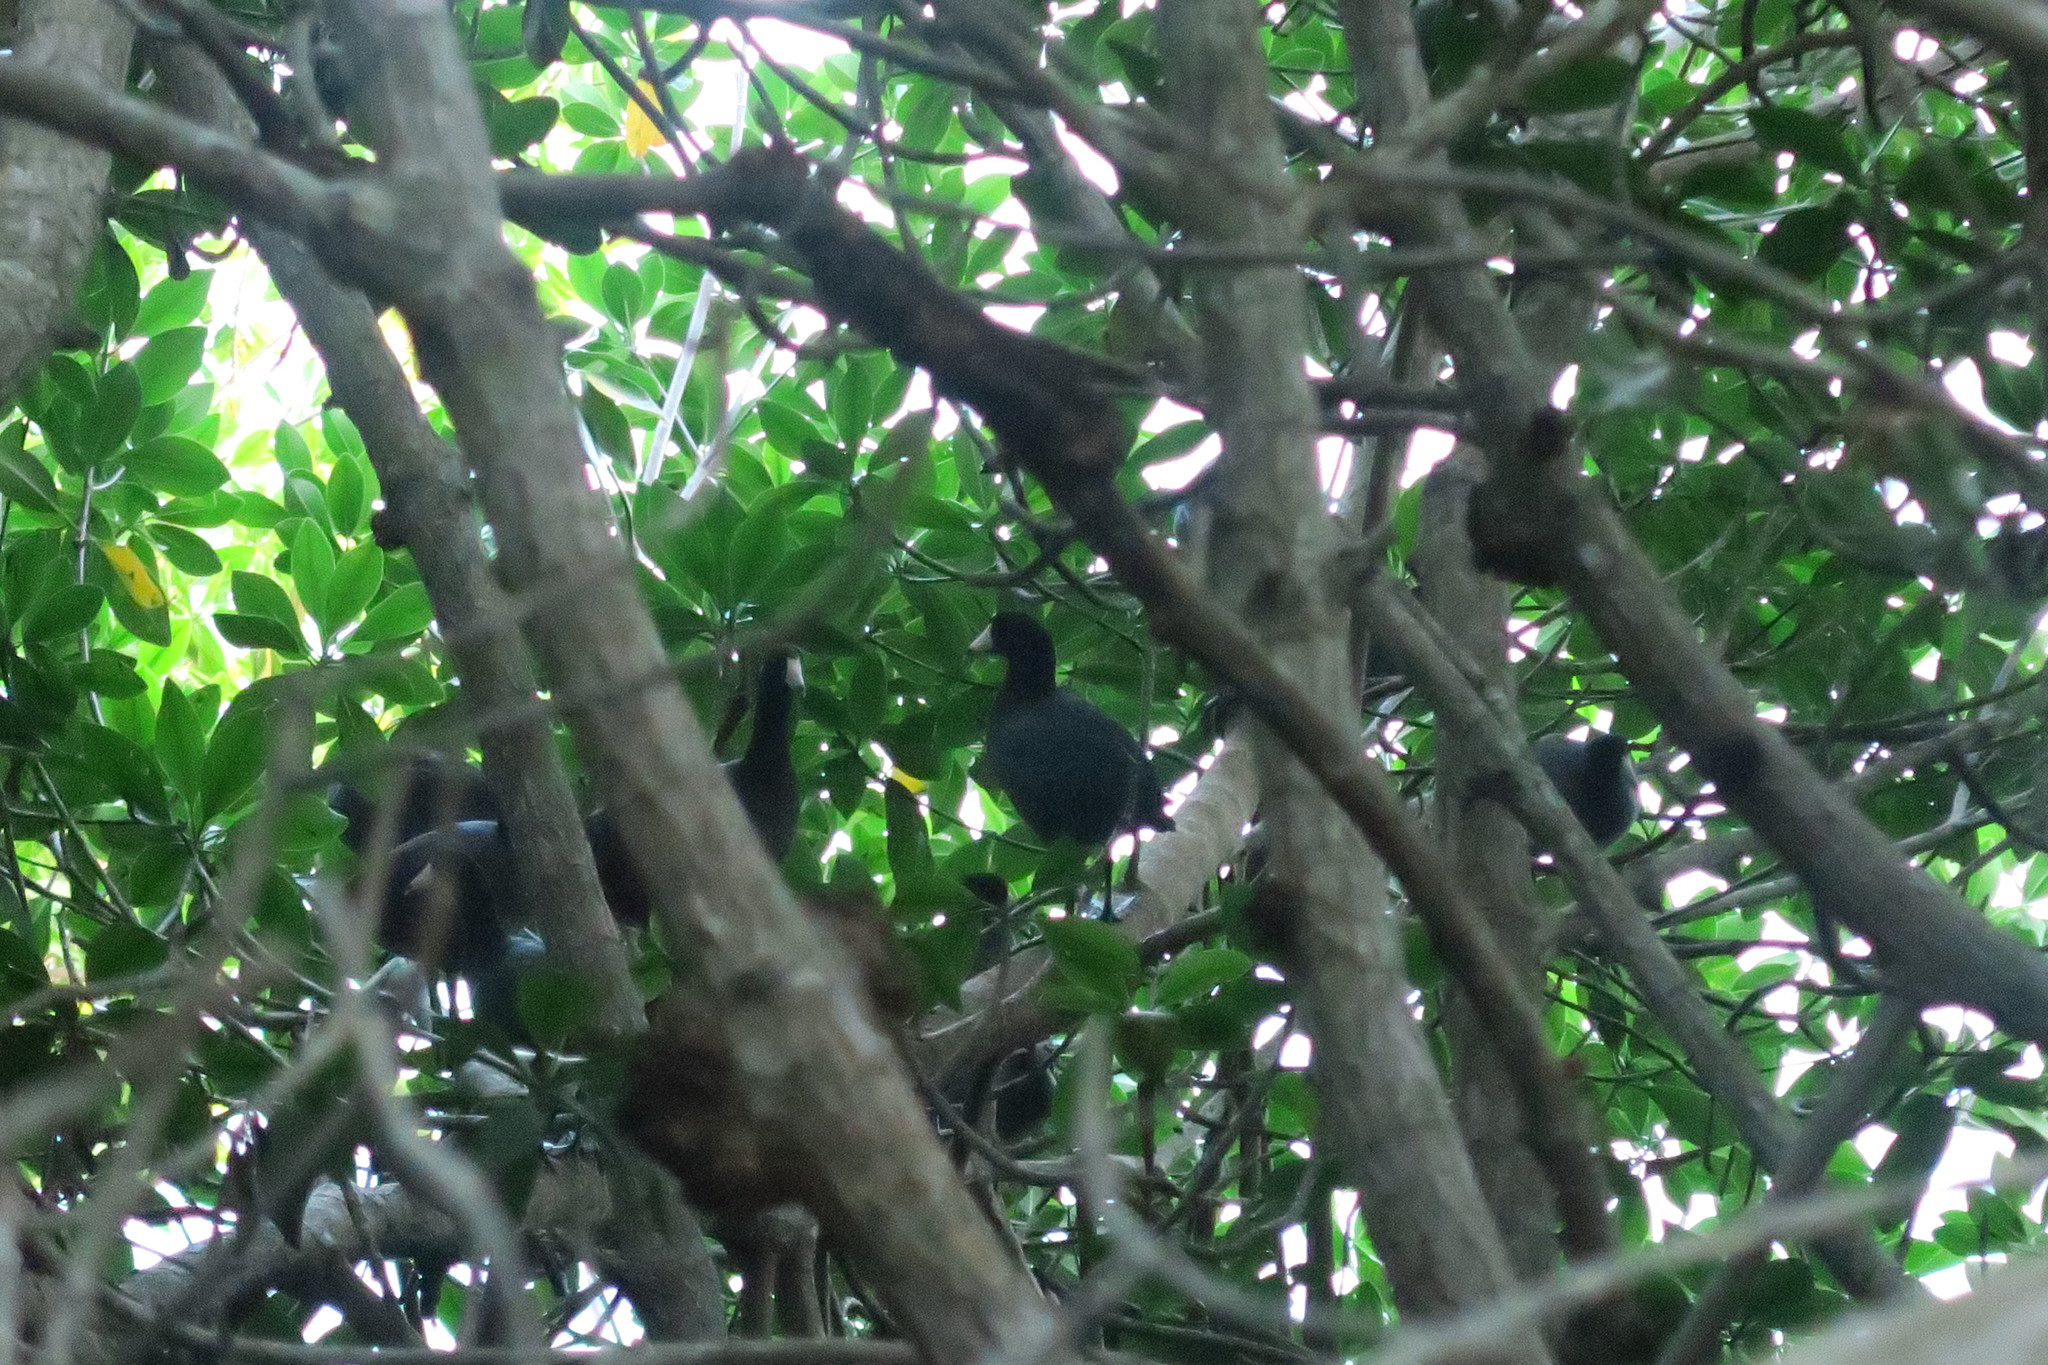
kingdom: Animalia
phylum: Chordata
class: Aves
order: Gruiformes
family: Rallidae
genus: Fulica
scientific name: Fulica americana
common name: American coot
